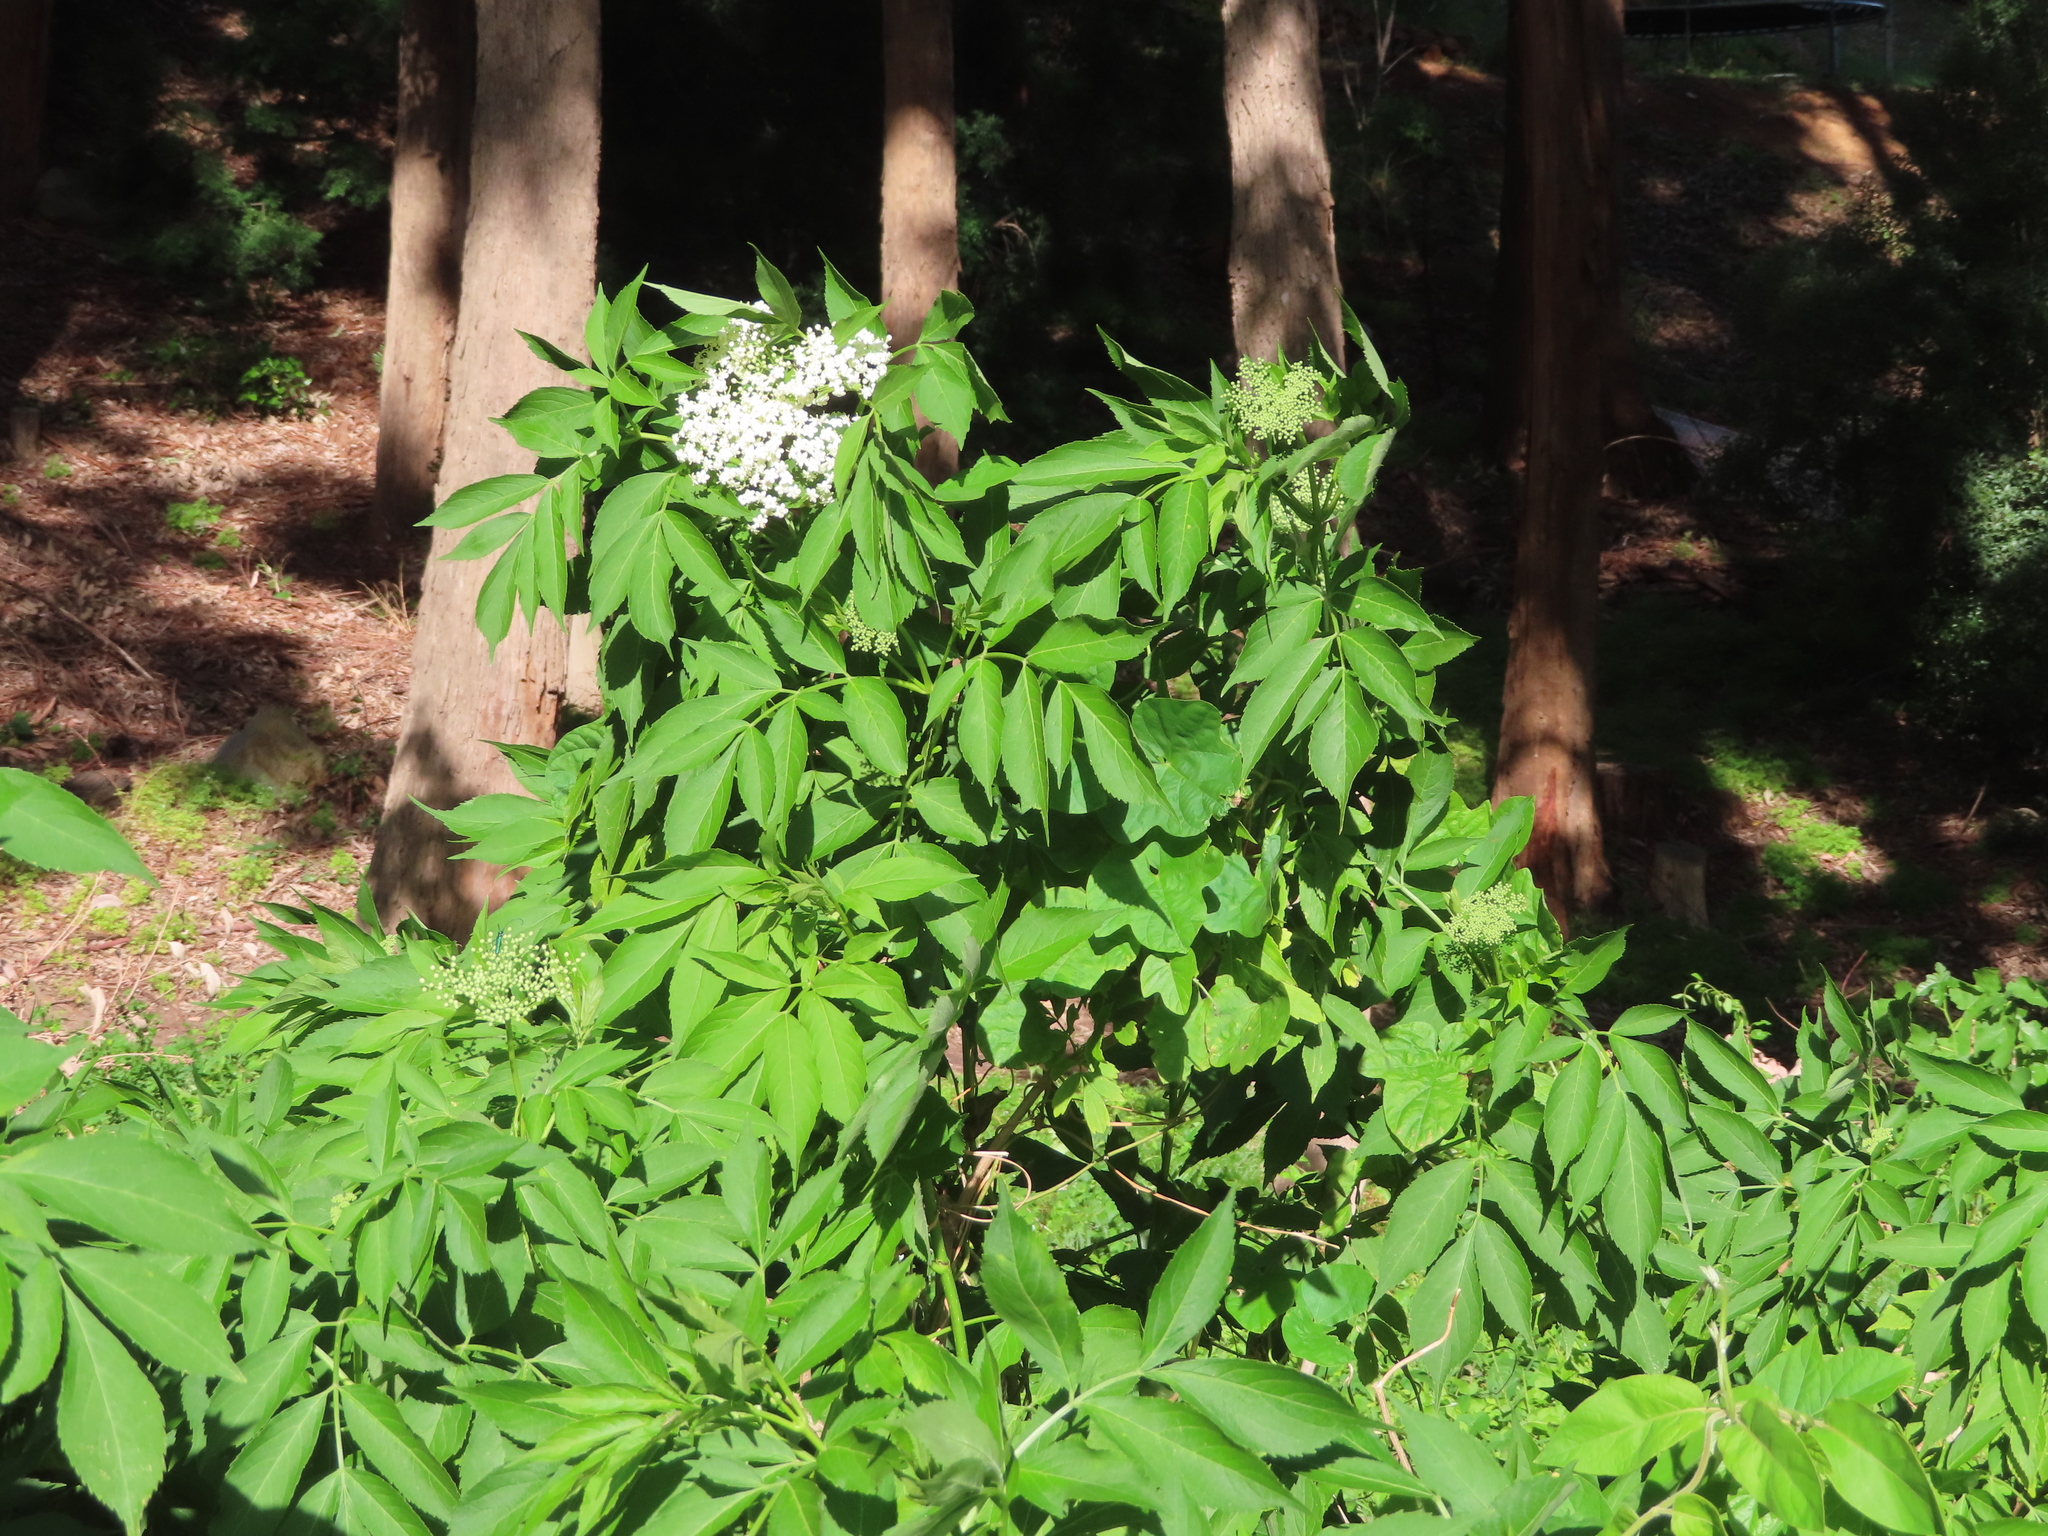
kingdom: Plantae
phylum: Tracheophyta
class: Magnoliopsida
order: Dipsacales
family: Viburnaceae
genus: Sambucus
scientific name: Sambucus nigra
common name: Elder
